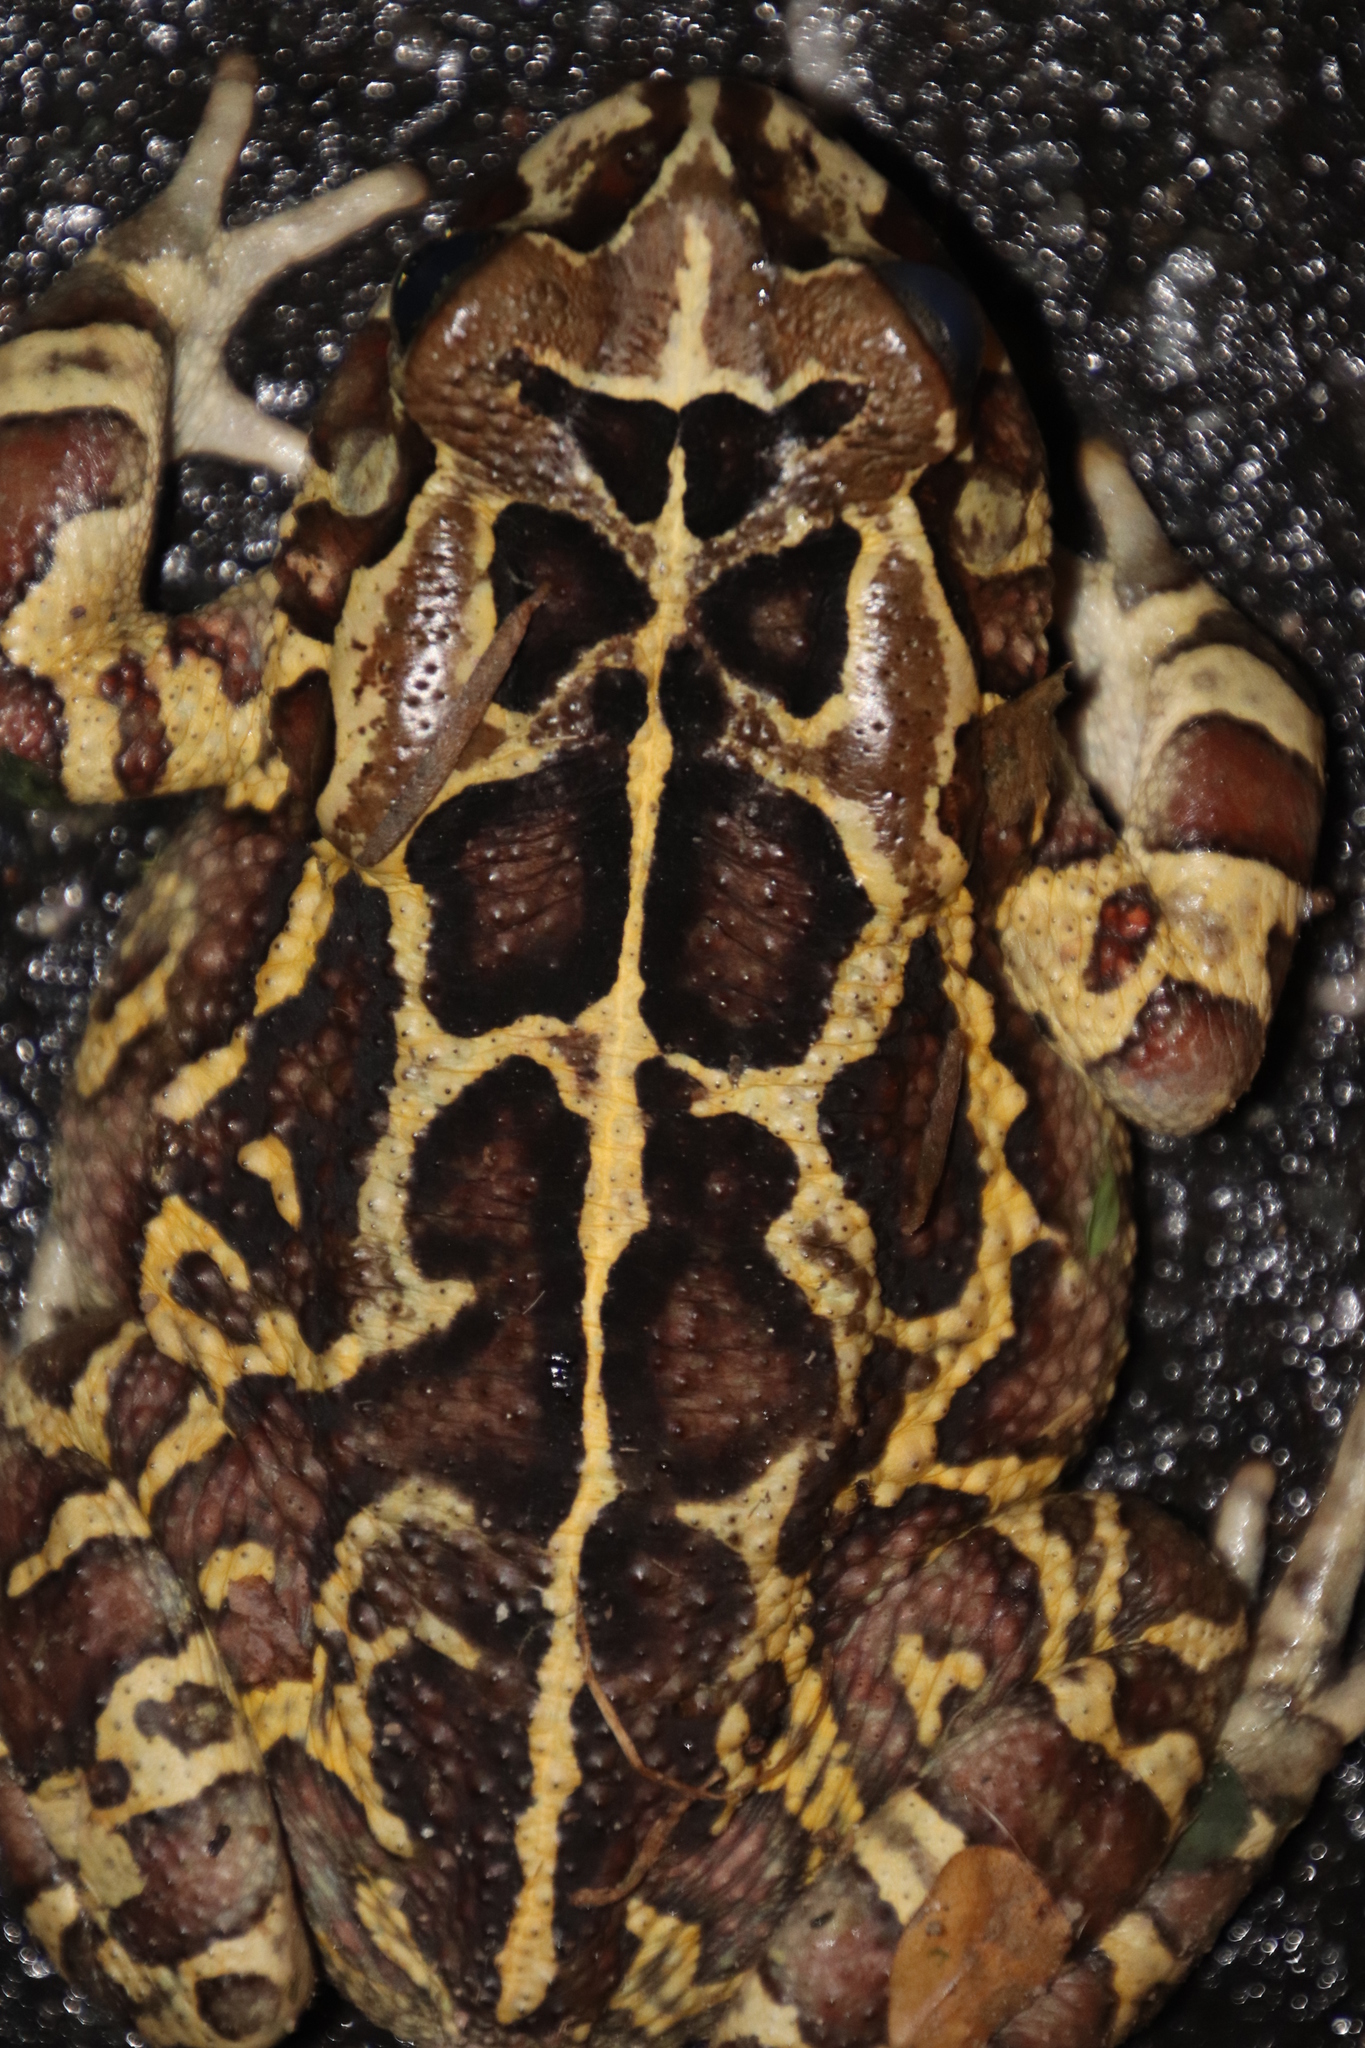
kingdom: Animalia
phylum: Chordata
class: Amphibia
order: Anura
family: Bufonidae
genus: Sclerophrys
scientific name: Sclerophrys pantherina
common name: Panther toad
